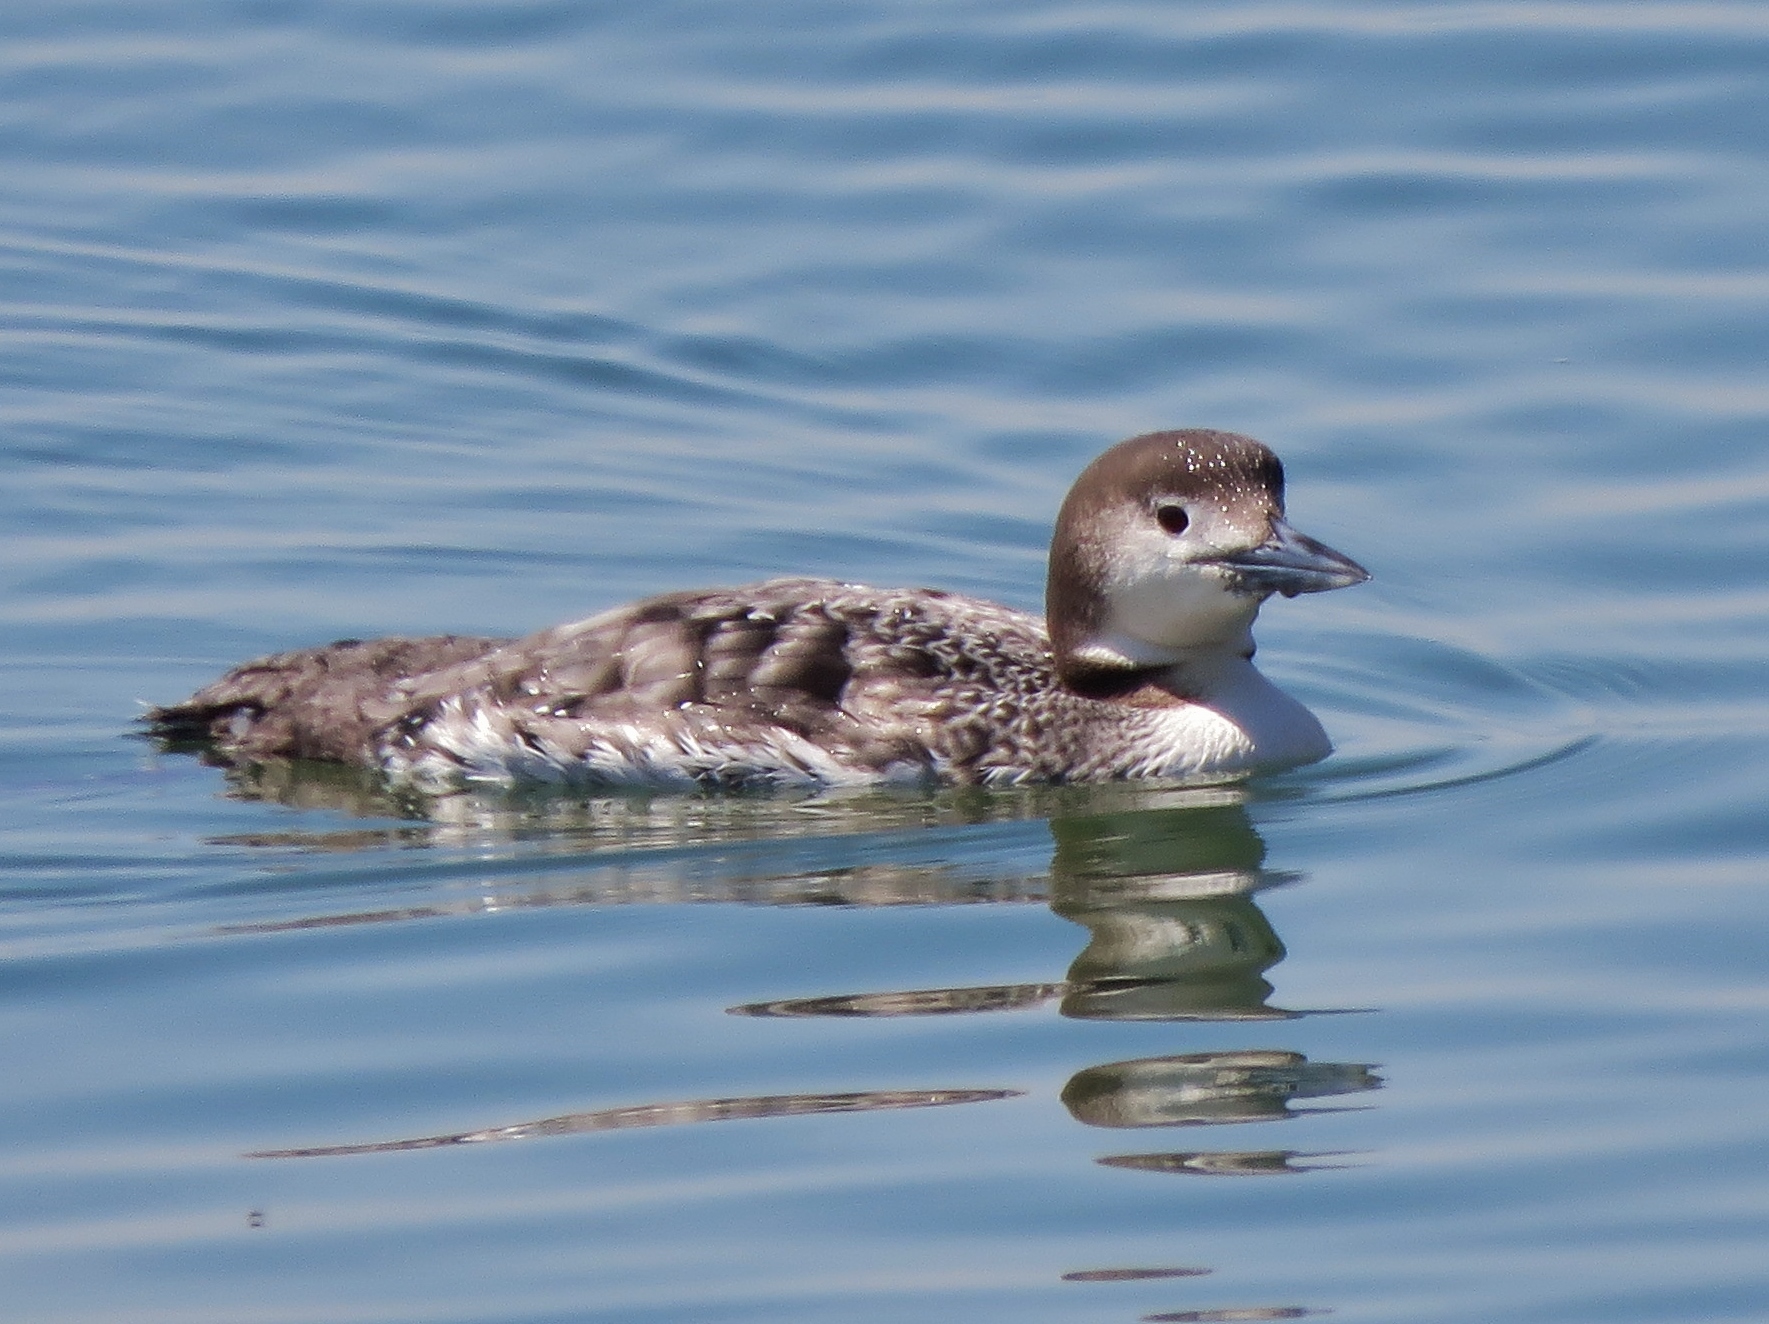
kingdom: Animalia
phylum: Chordata
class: Aves
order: Gaviiformes
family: Gaviidae
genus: Gavia
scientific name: Gavia immer
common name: Common loon
